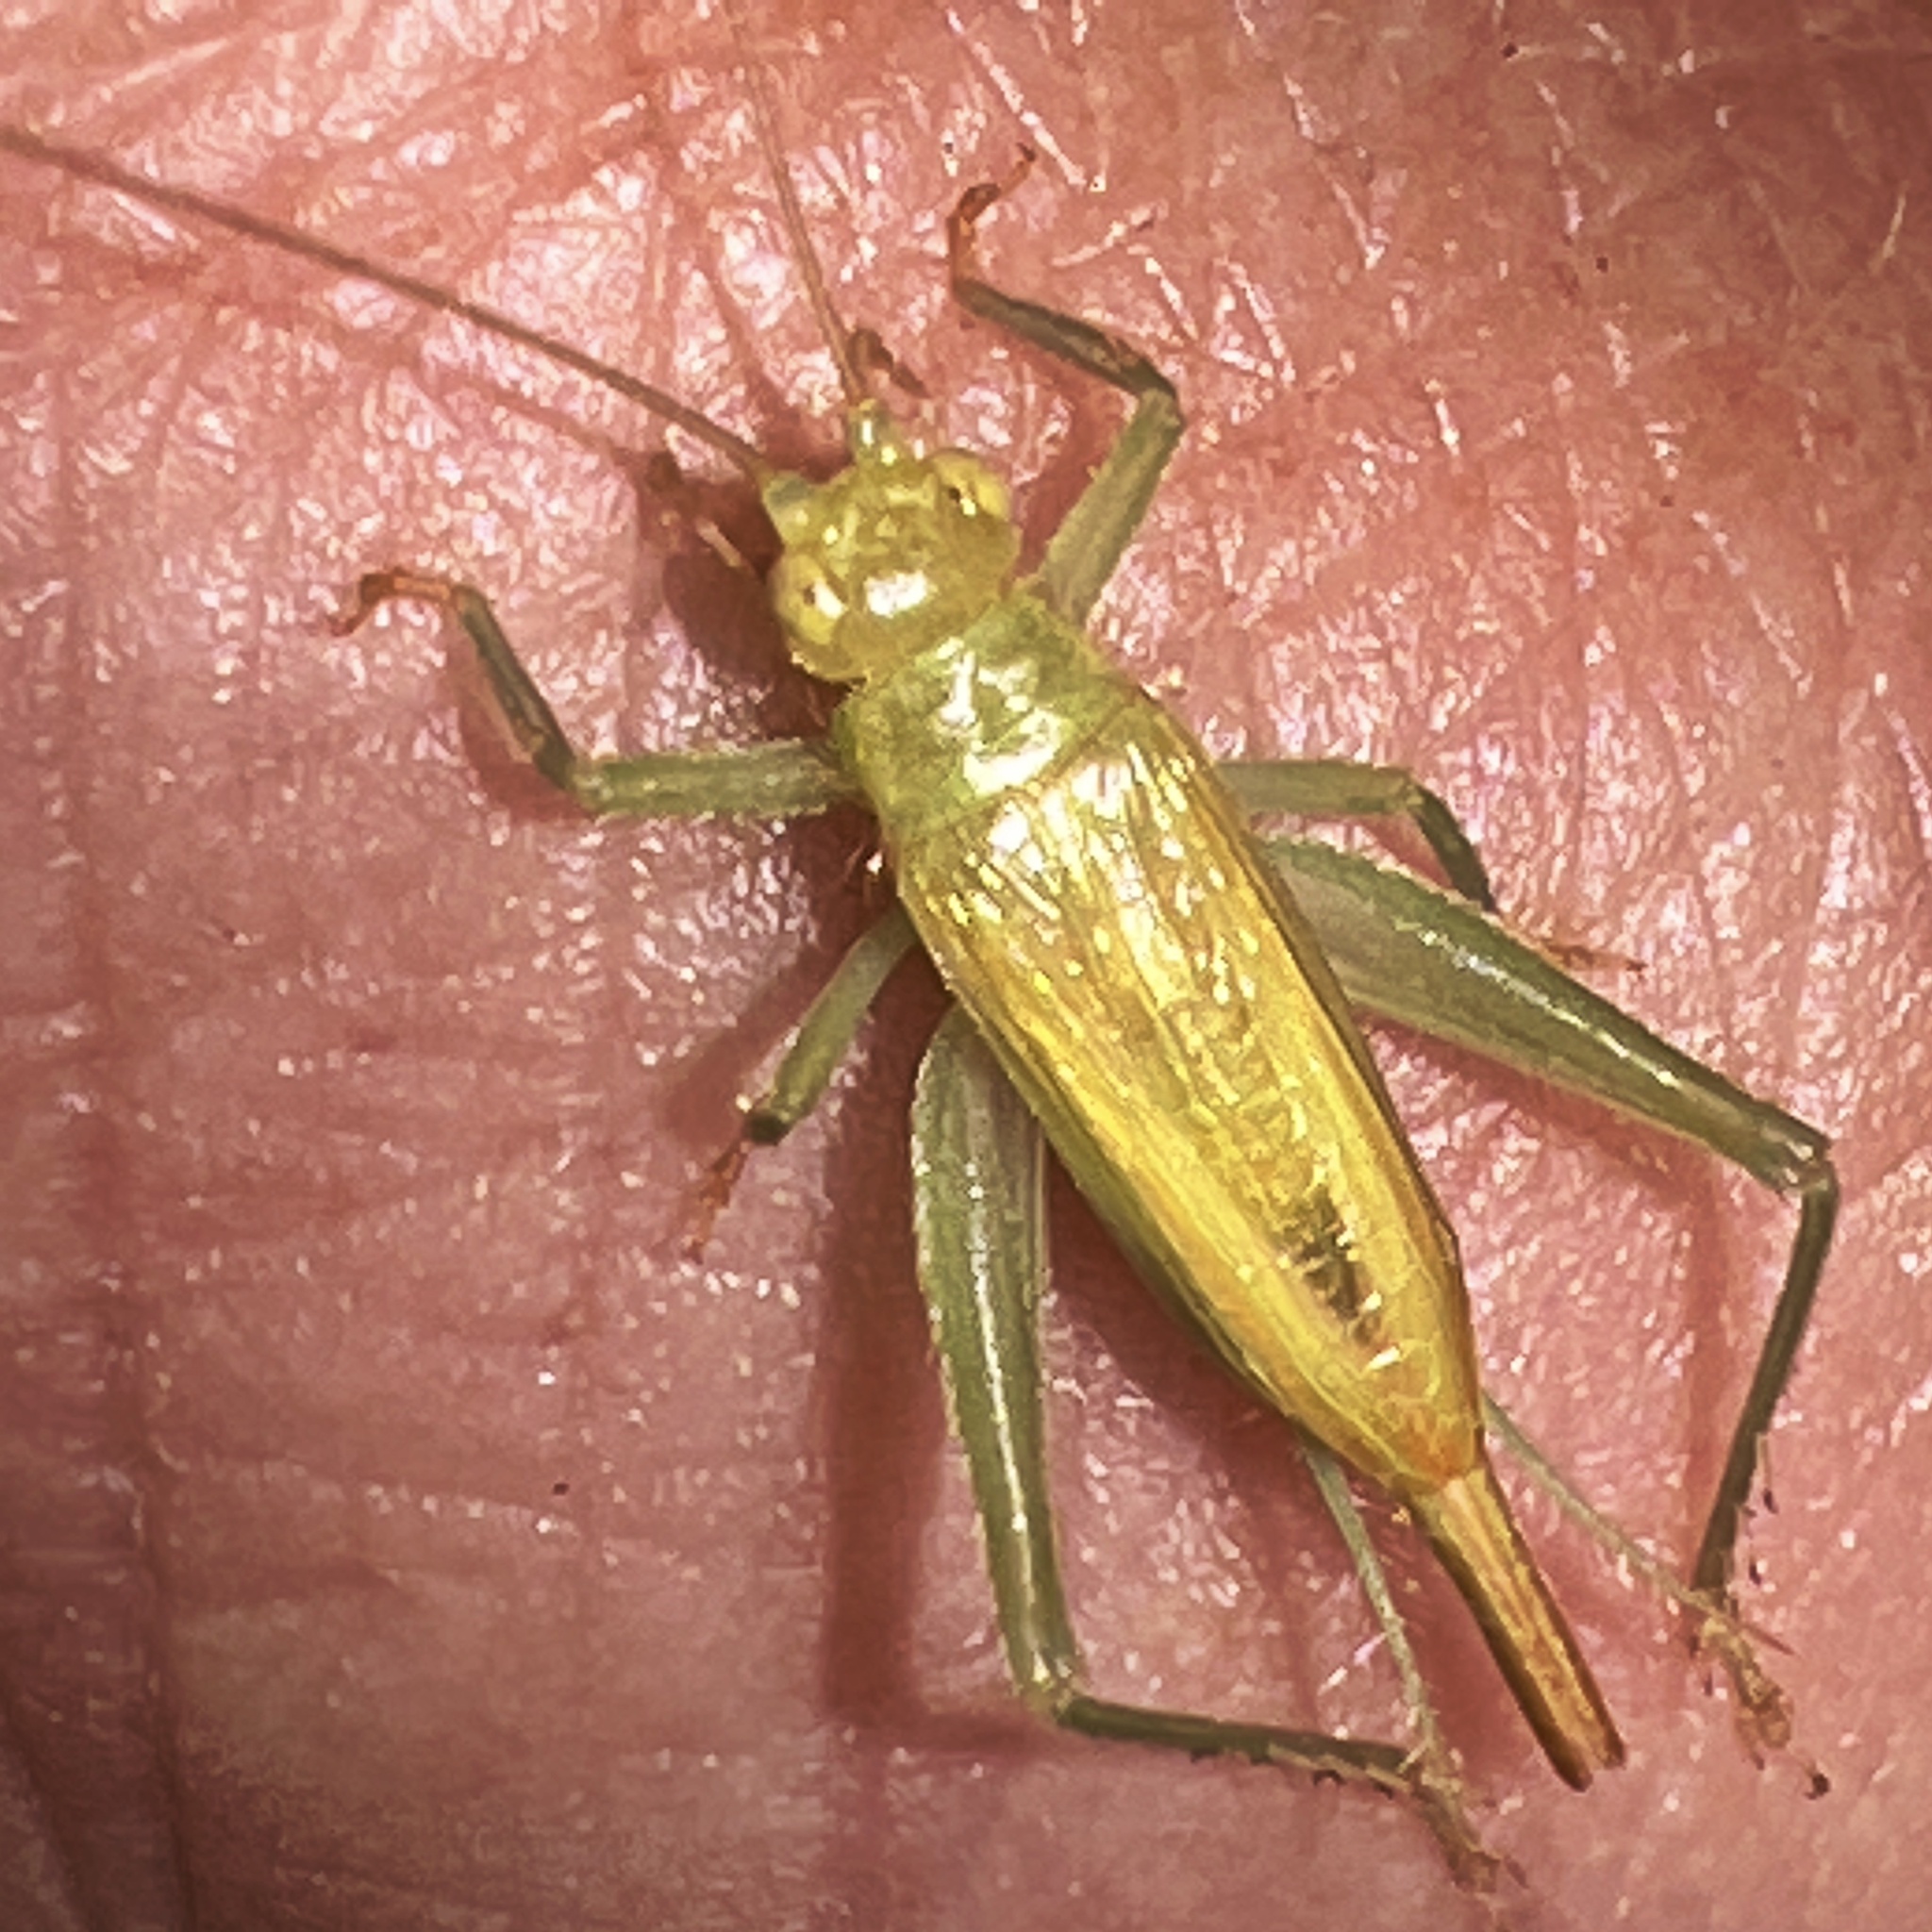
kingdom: Animalia
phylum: Arthropoda
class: Insecta
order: Orthoptera
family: Trigonidiidae
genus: Cyrtoxipha
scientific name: Cyrtoxipha columbiana
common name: Columbian trig
